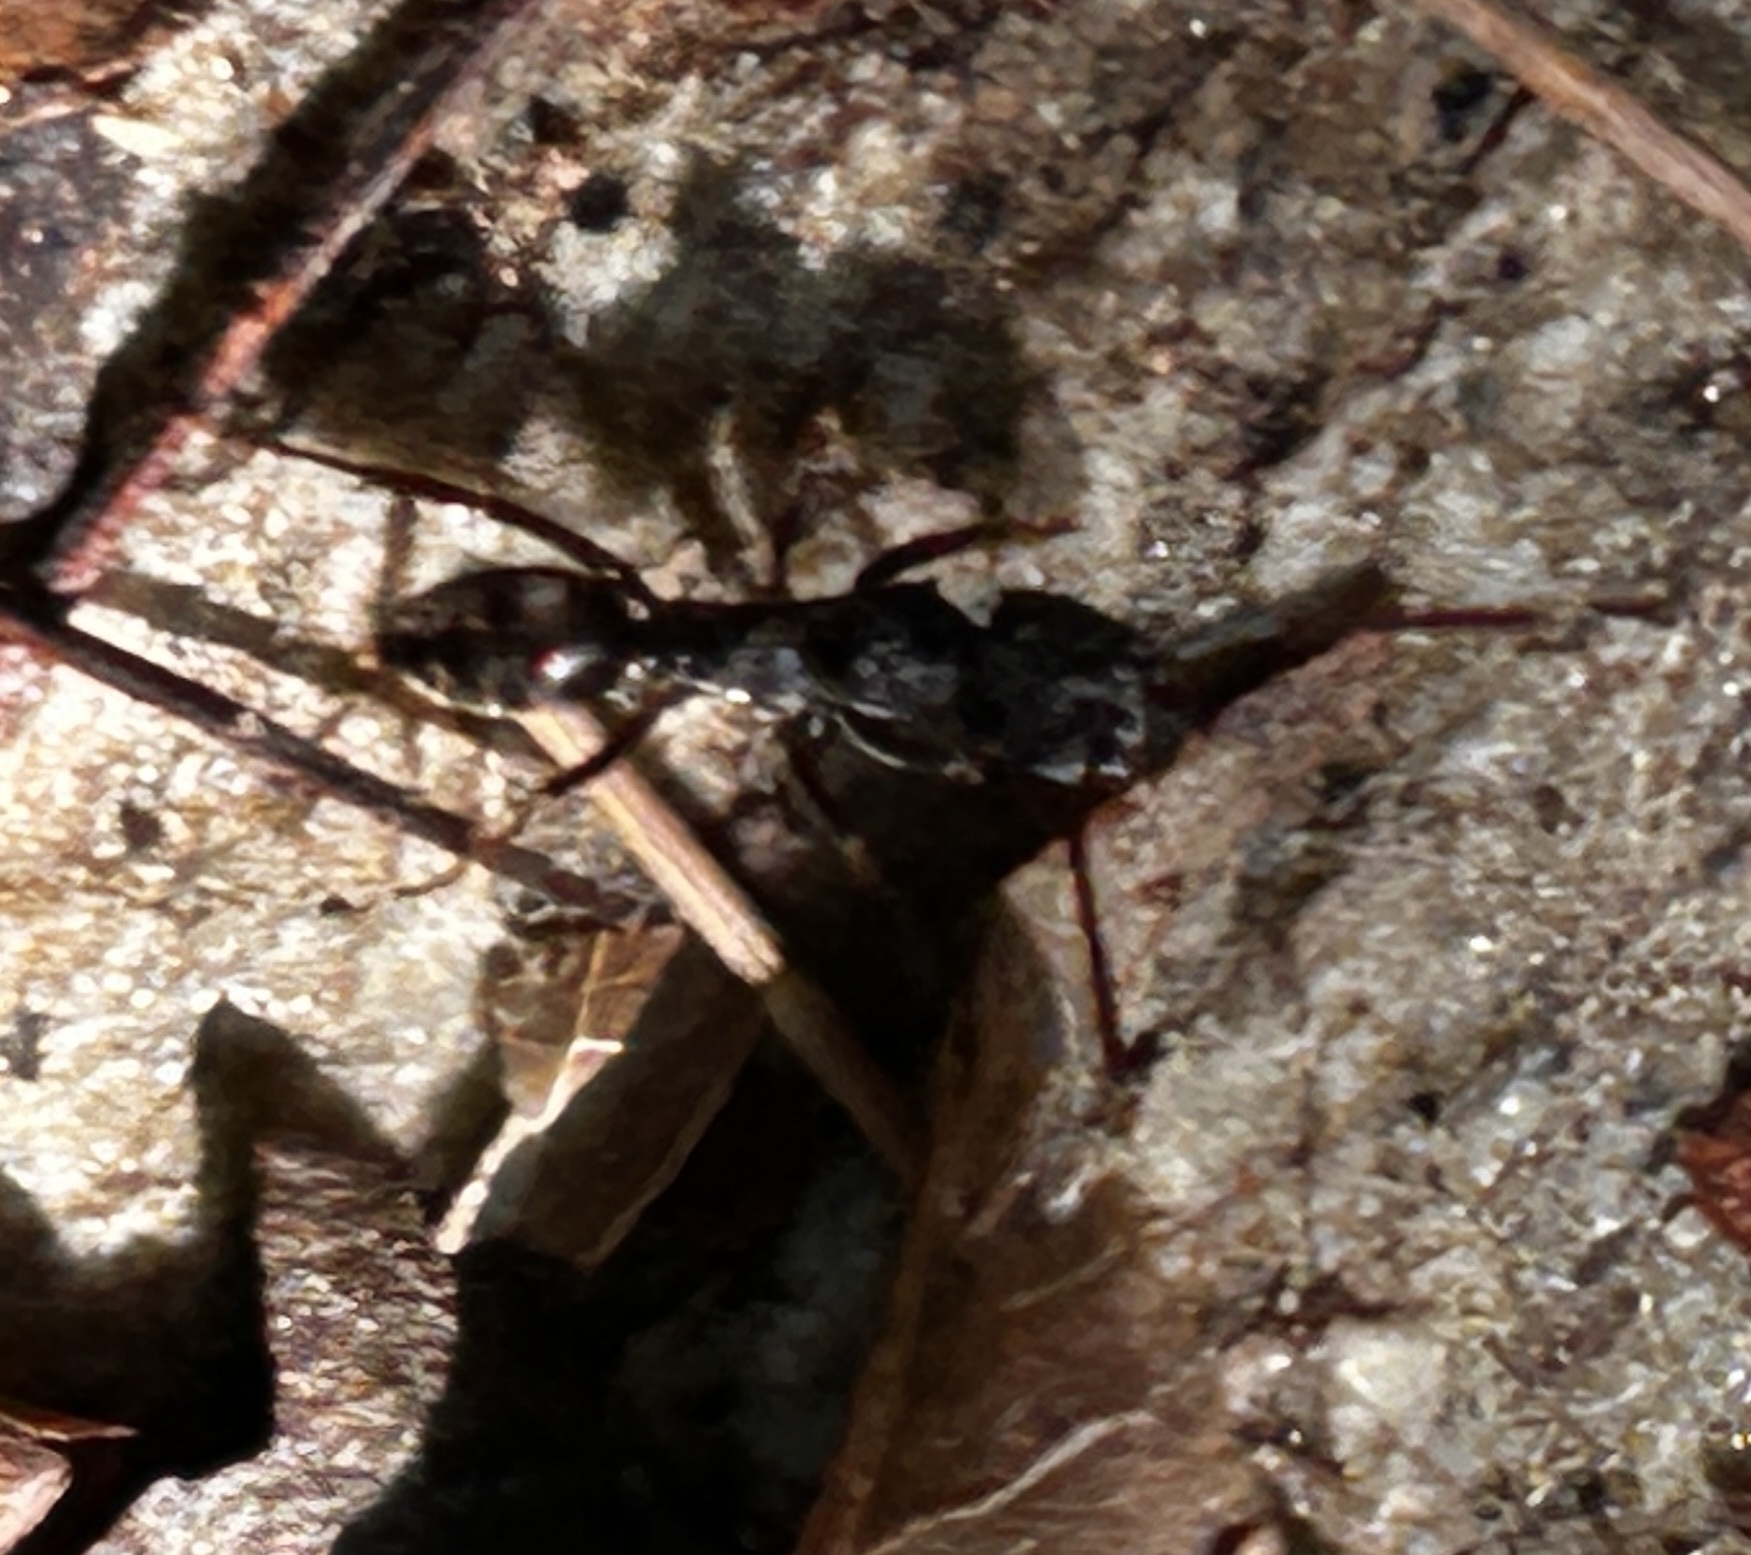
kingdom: Animalia
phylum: Arthropoda
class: Insecta
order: Hymenoptera
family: Formicidae
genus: Odontoponera
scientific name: Odontoponera denticulata
